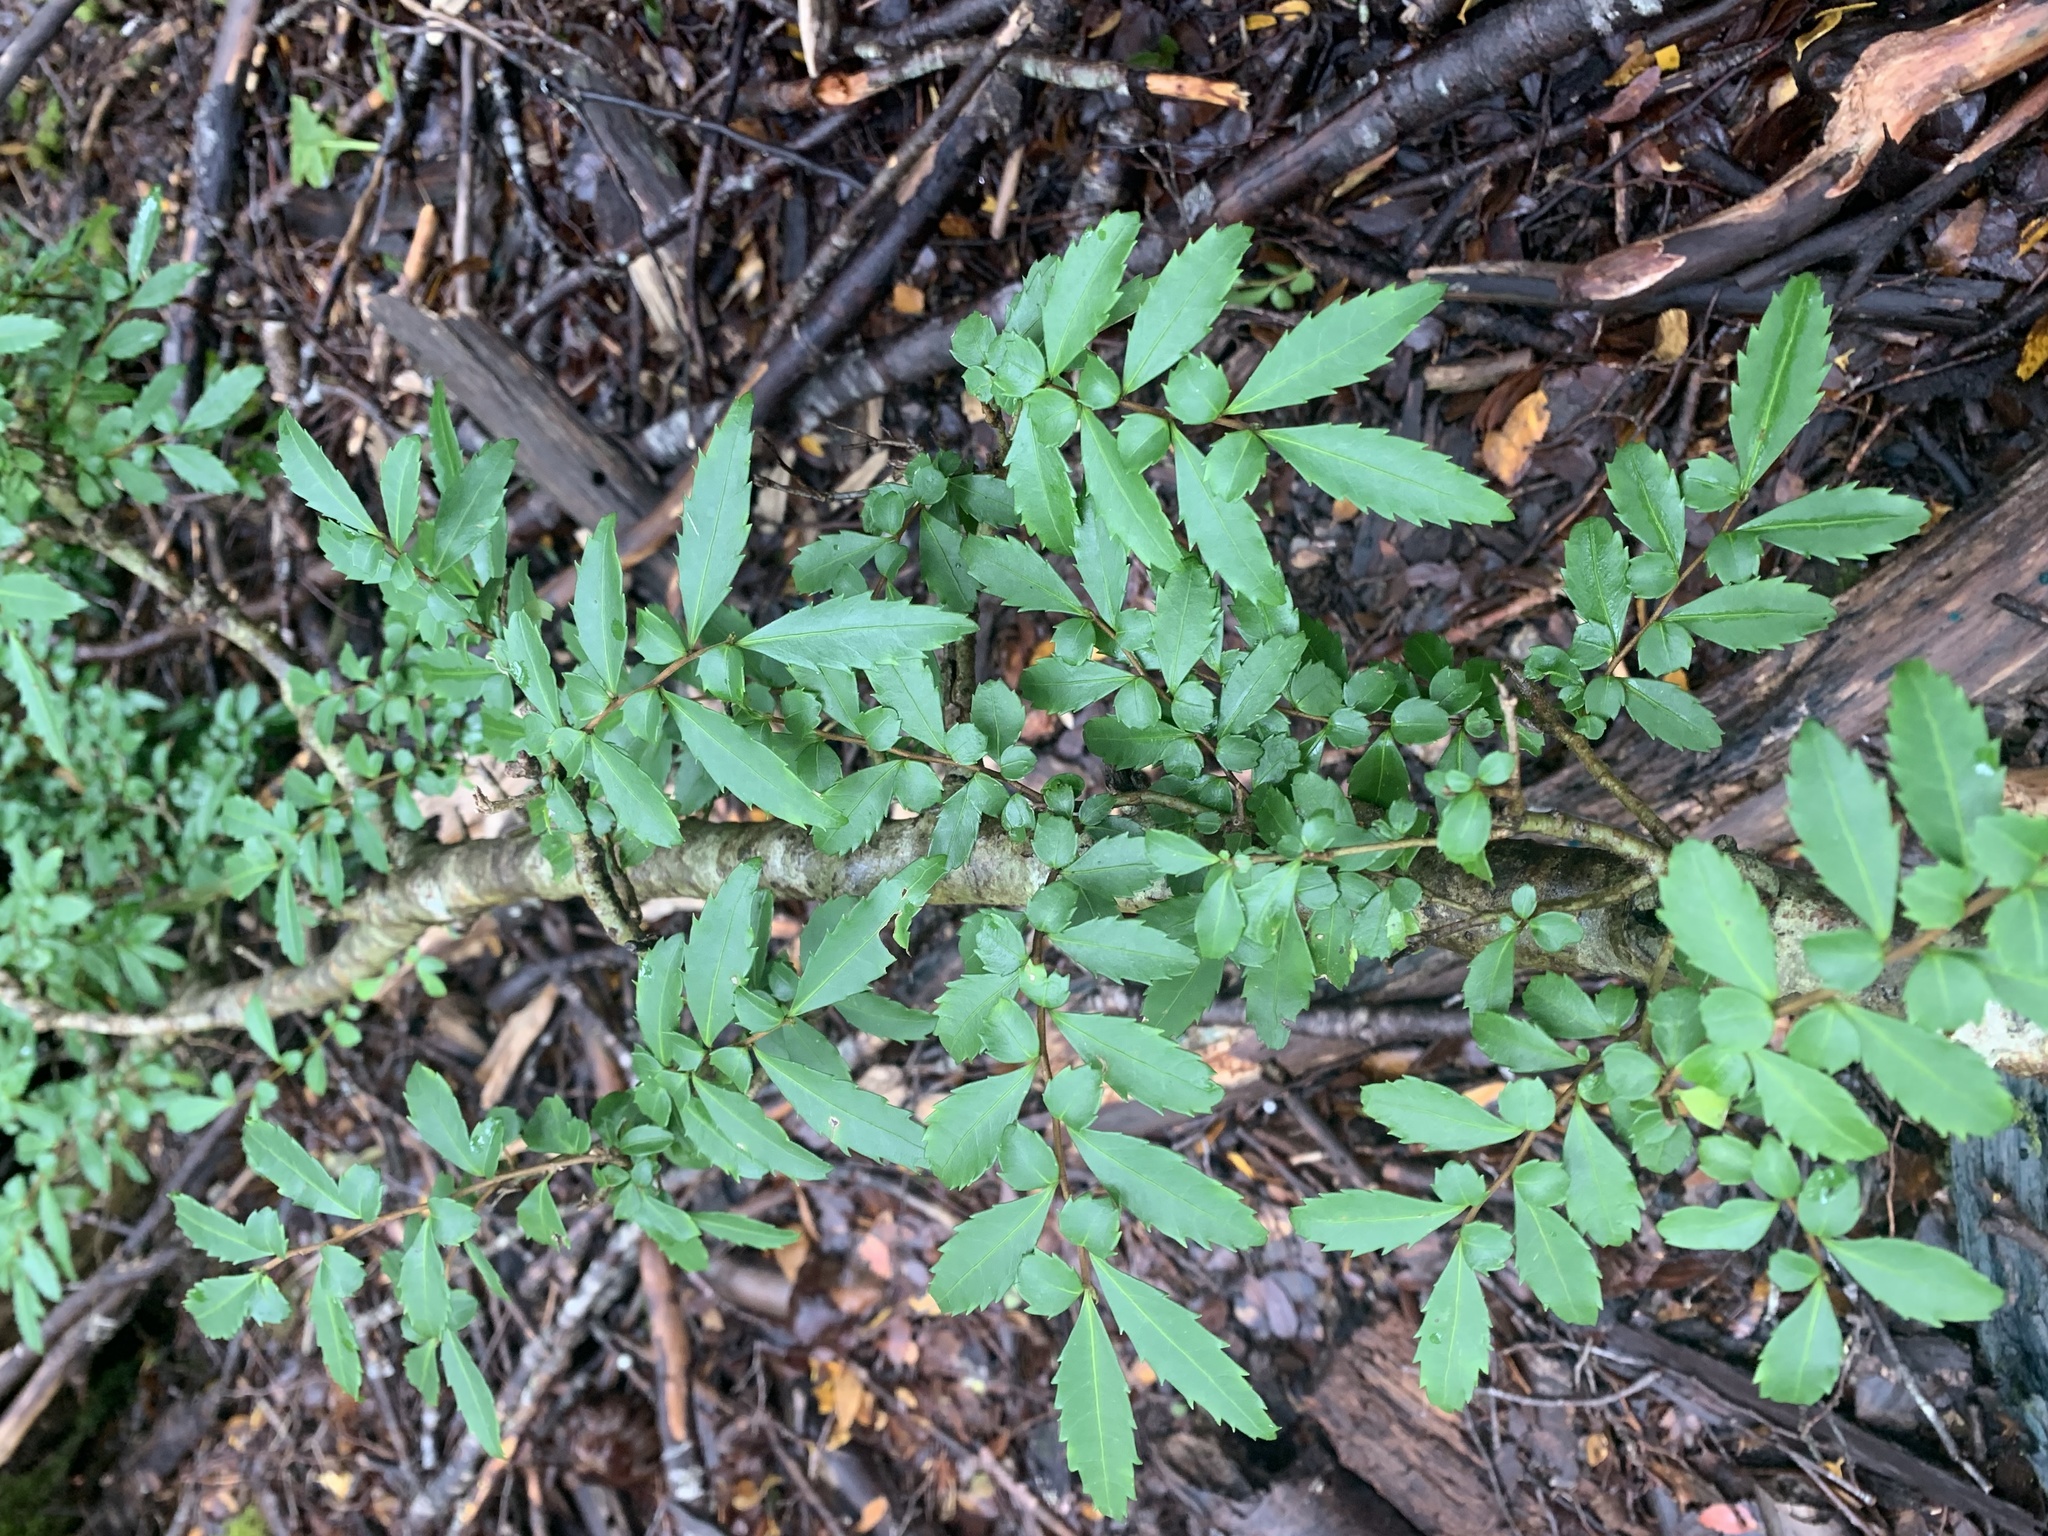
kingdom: Plantae
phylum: Tracheophyta
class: Magnoliopsida
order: Malpighiales
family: Salicaceae
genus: Azara
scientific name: Azara lanceolata
